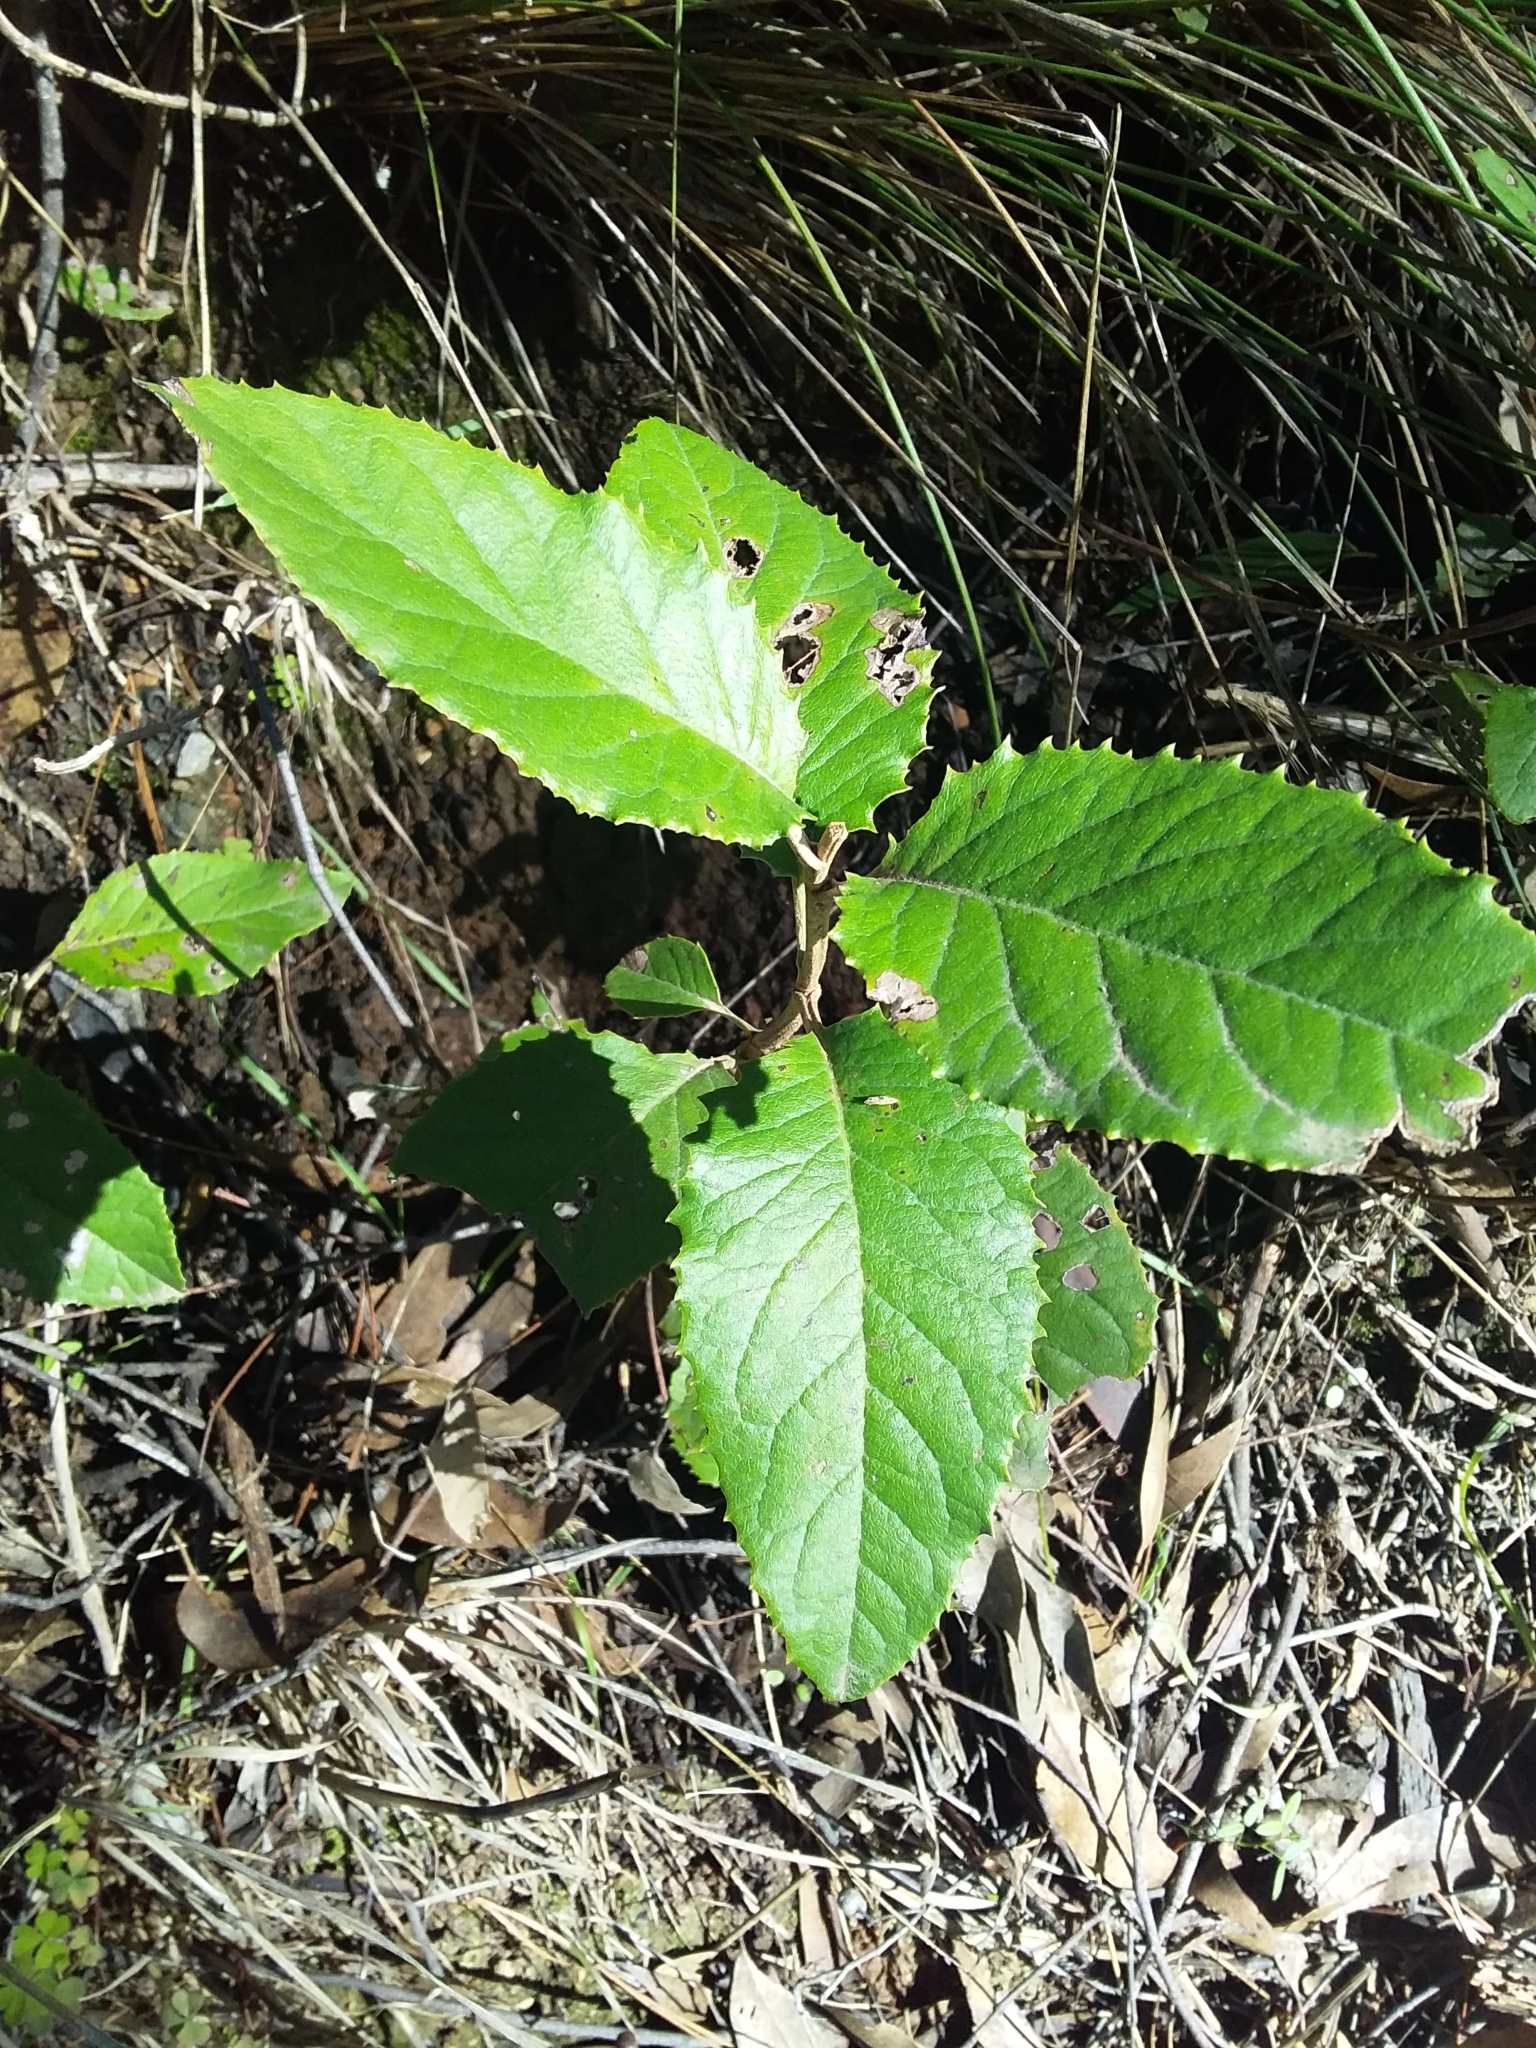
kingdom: Plantae
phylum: Tracheophyta
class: Magnoliopsida
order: Asterales
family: Asteraceae
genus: Olearia
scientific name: Olearia grandiflora
